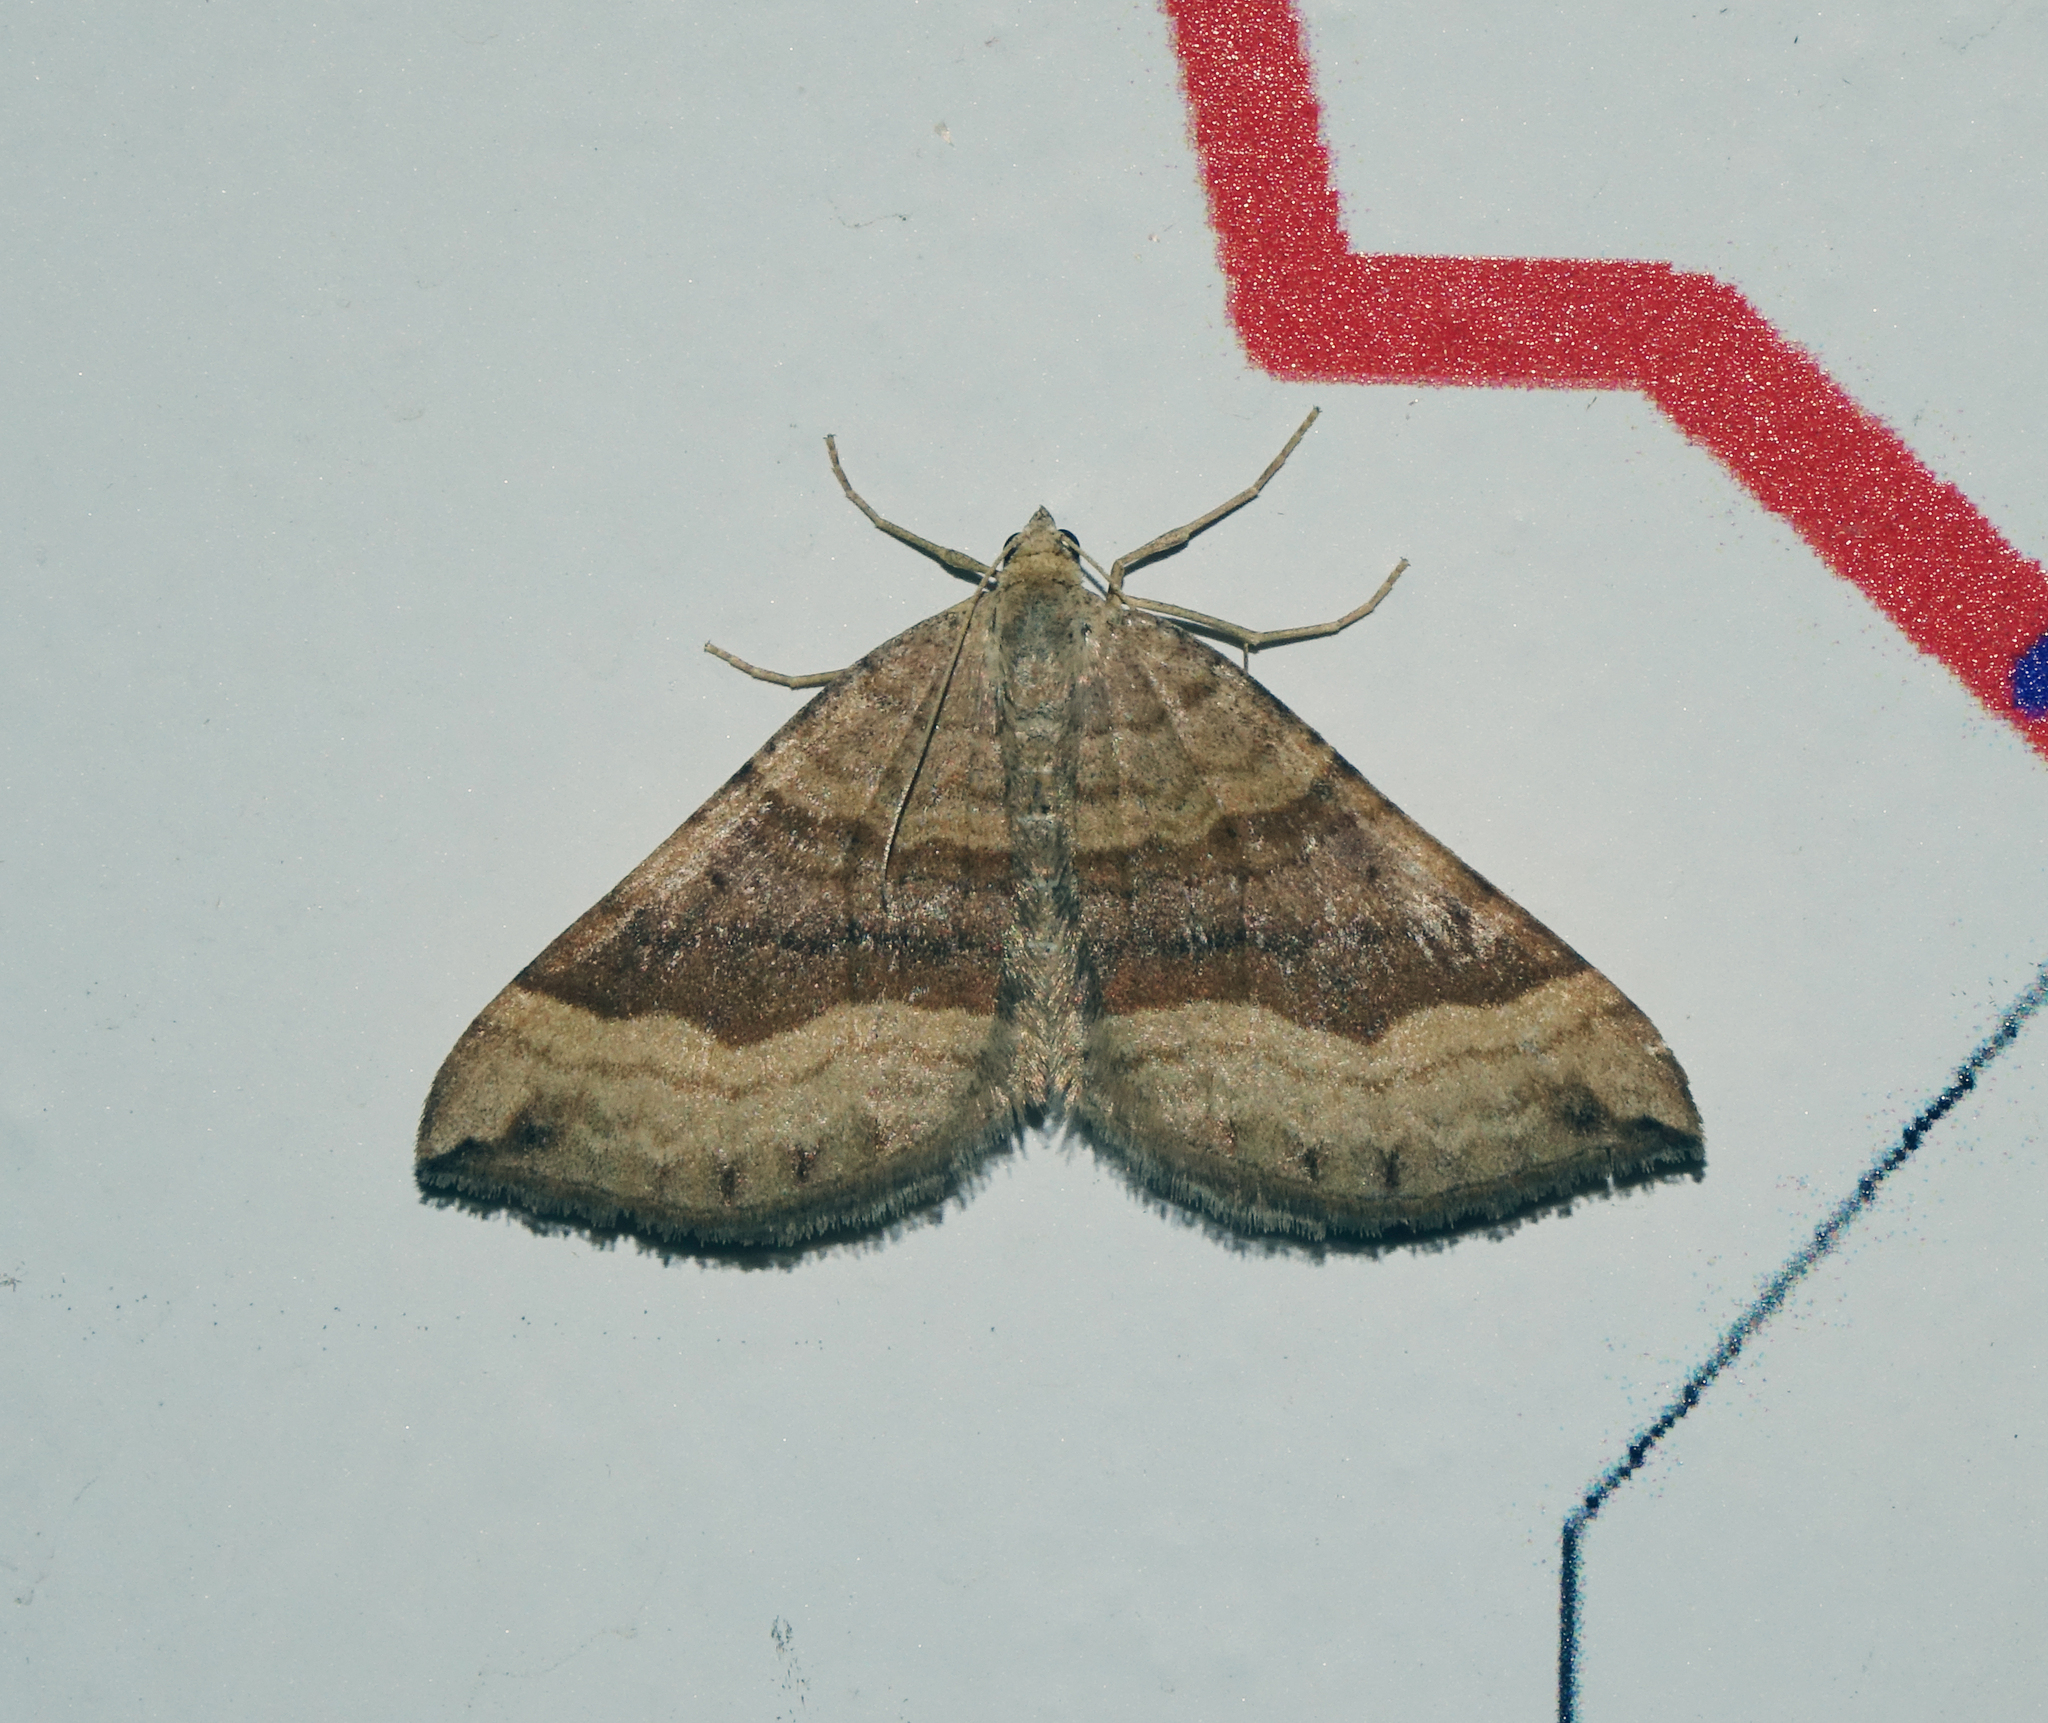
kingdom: Animalia
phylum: Arthropoda
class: Insecta
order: Lepidoptera
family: Geometridae
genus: Scotopteryx
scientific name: Scotopteryx chenopodiata
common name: Shaded broad-bar
